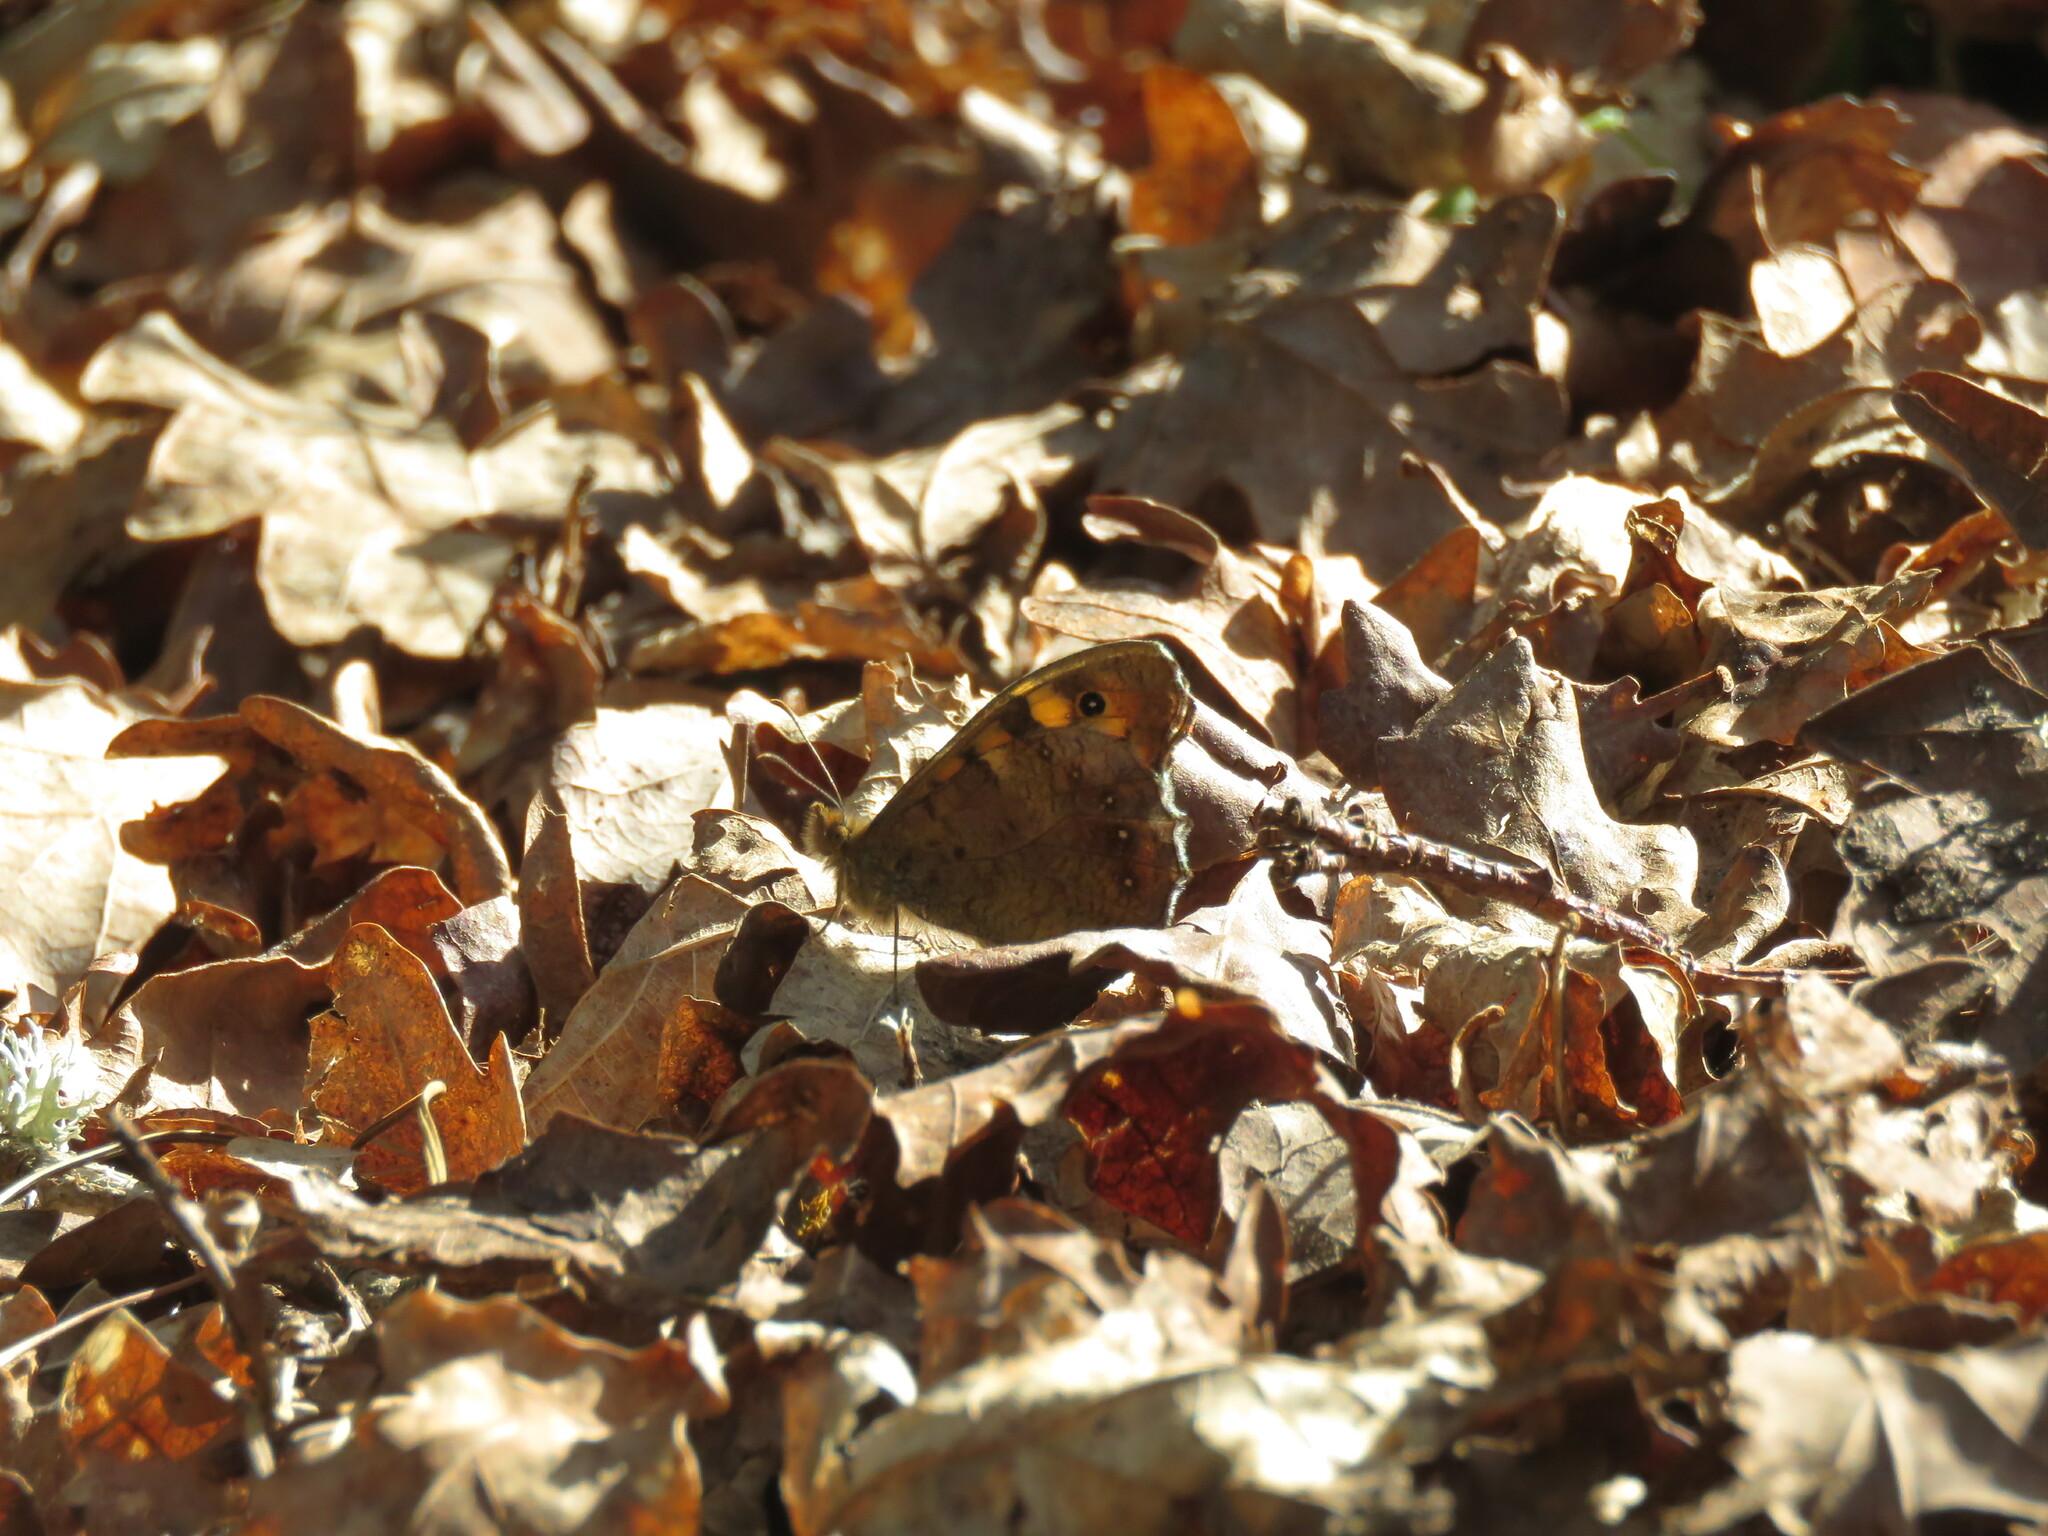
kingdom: Animalia
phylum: Arthropoda
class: Insecta
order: Lepidoptera
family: Nymphalidae
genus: Pararge
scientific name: Pararge aegeria
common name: Speckled wood
